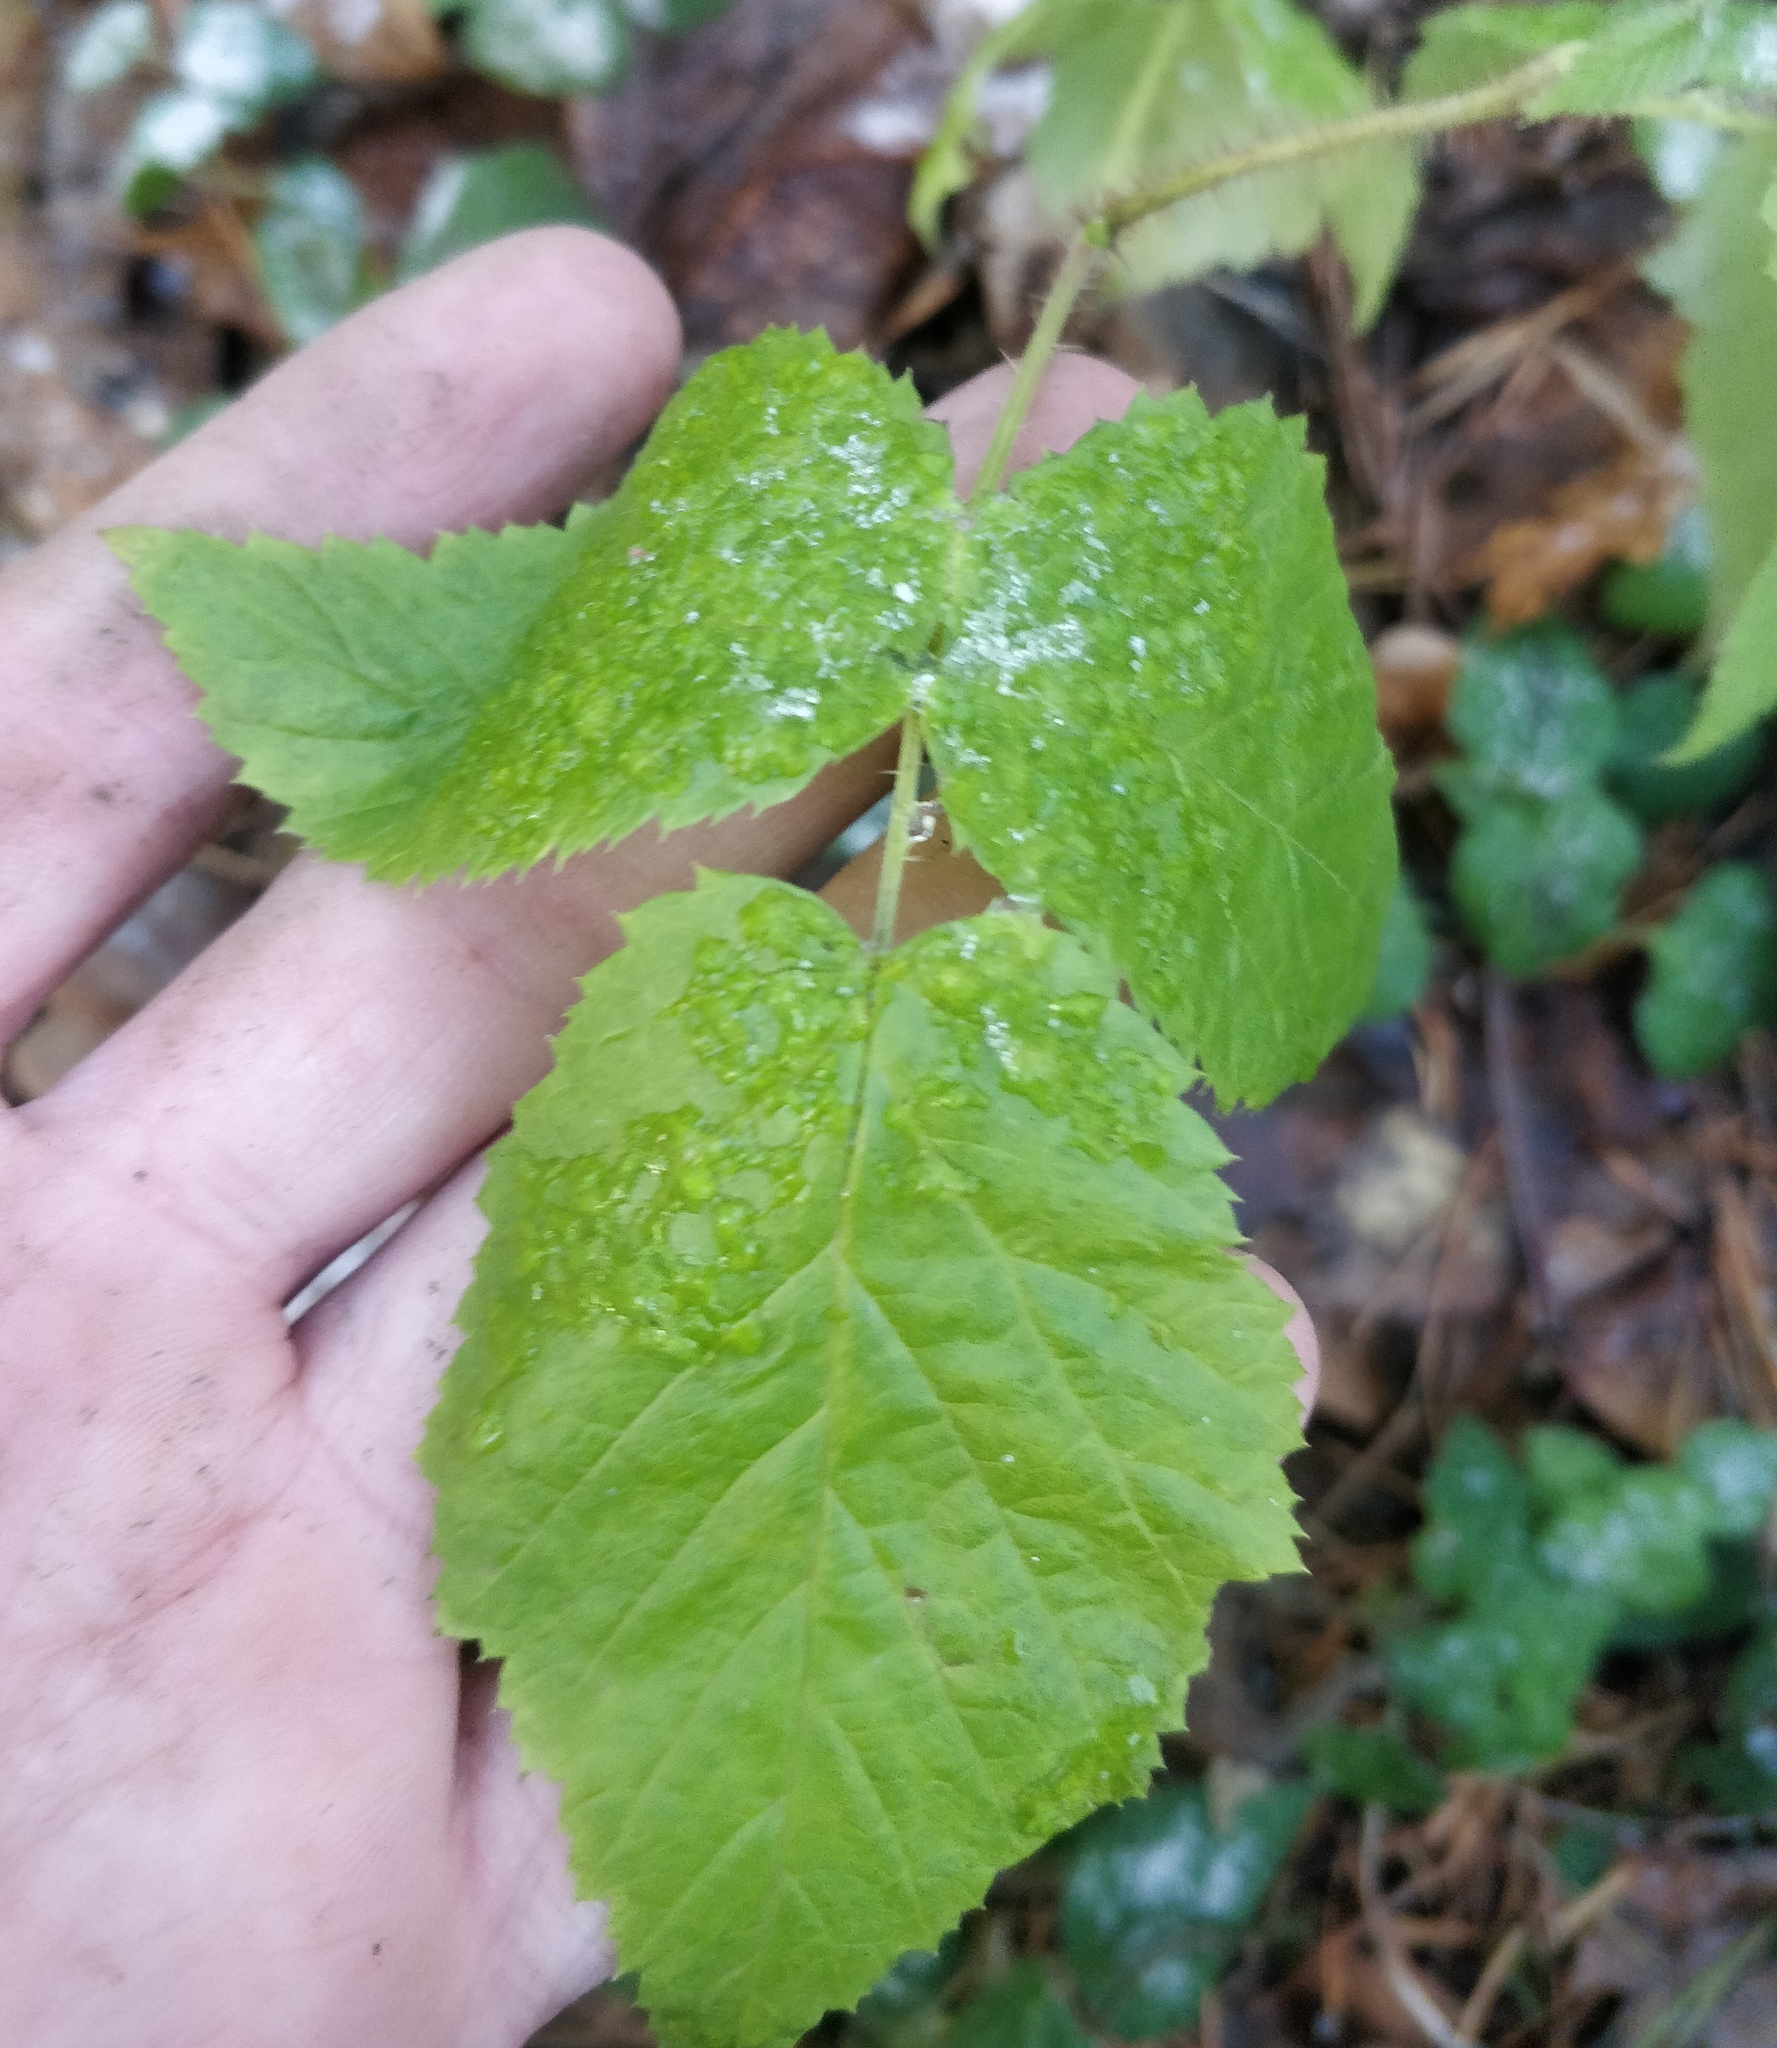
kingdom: Plantae
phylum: Tracheophyta
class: Magnoliopsida
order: Rosales
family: Rosaceae
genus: Rubus
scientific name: Rubus idaeus
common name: Raspberry
